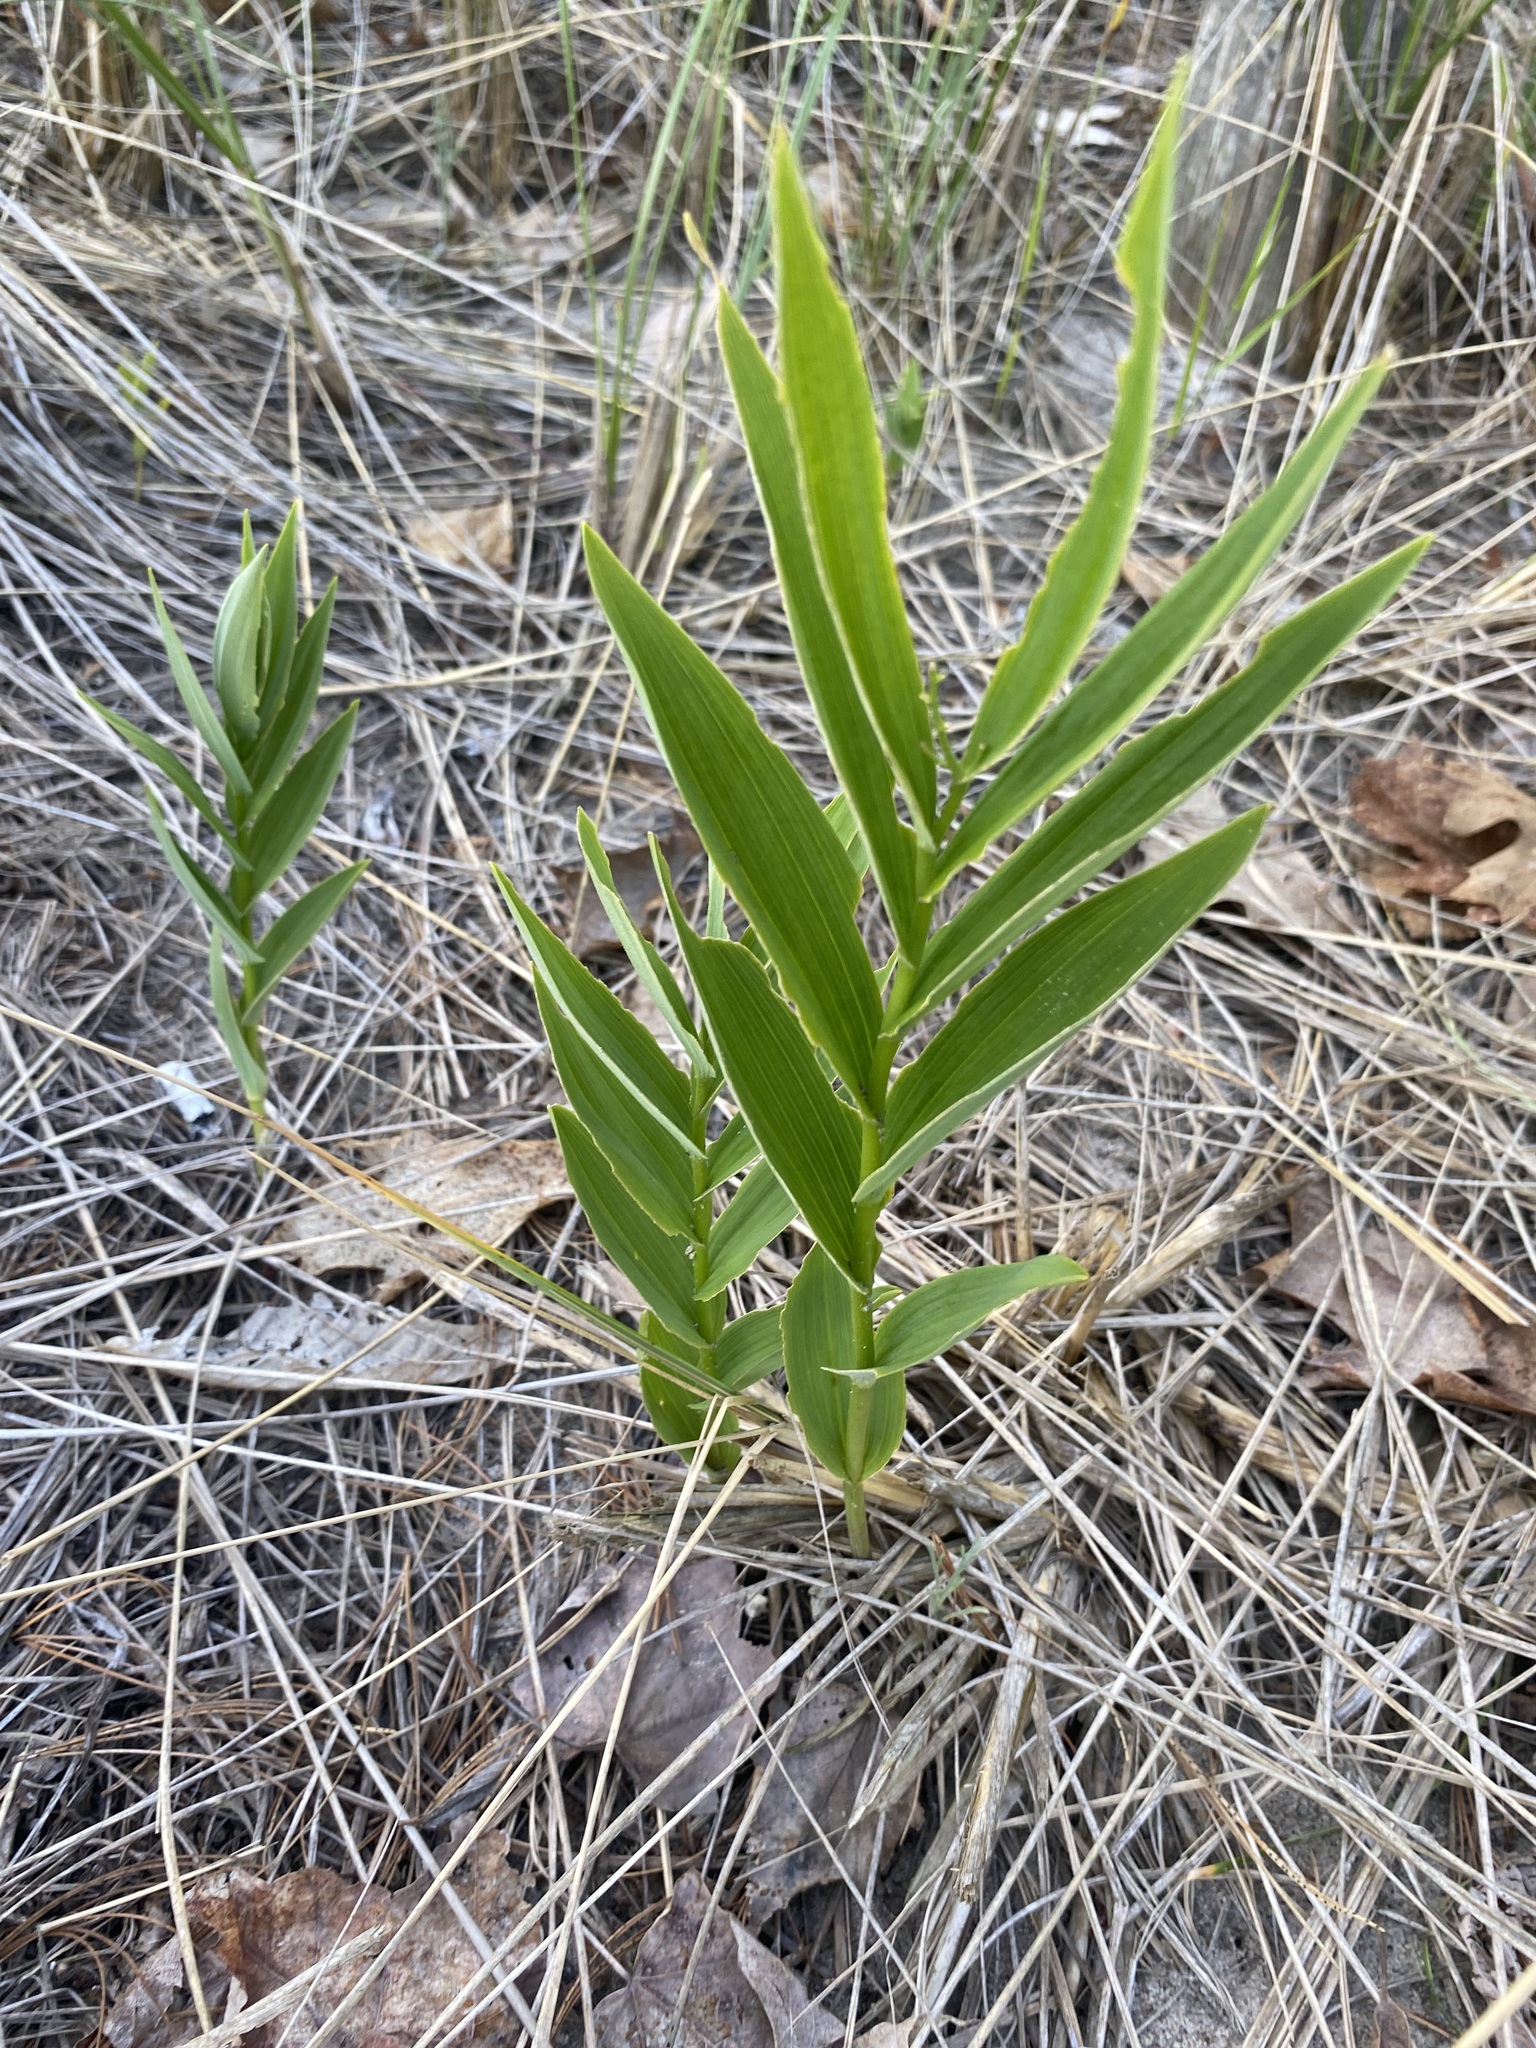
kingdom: Plantae
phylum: Tracheophyta
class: Liliopsida
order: Asparagales
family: Asparagaceae
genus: Maianthemum
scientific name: Maianthemum stellatum
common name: Little false solomon's seal
